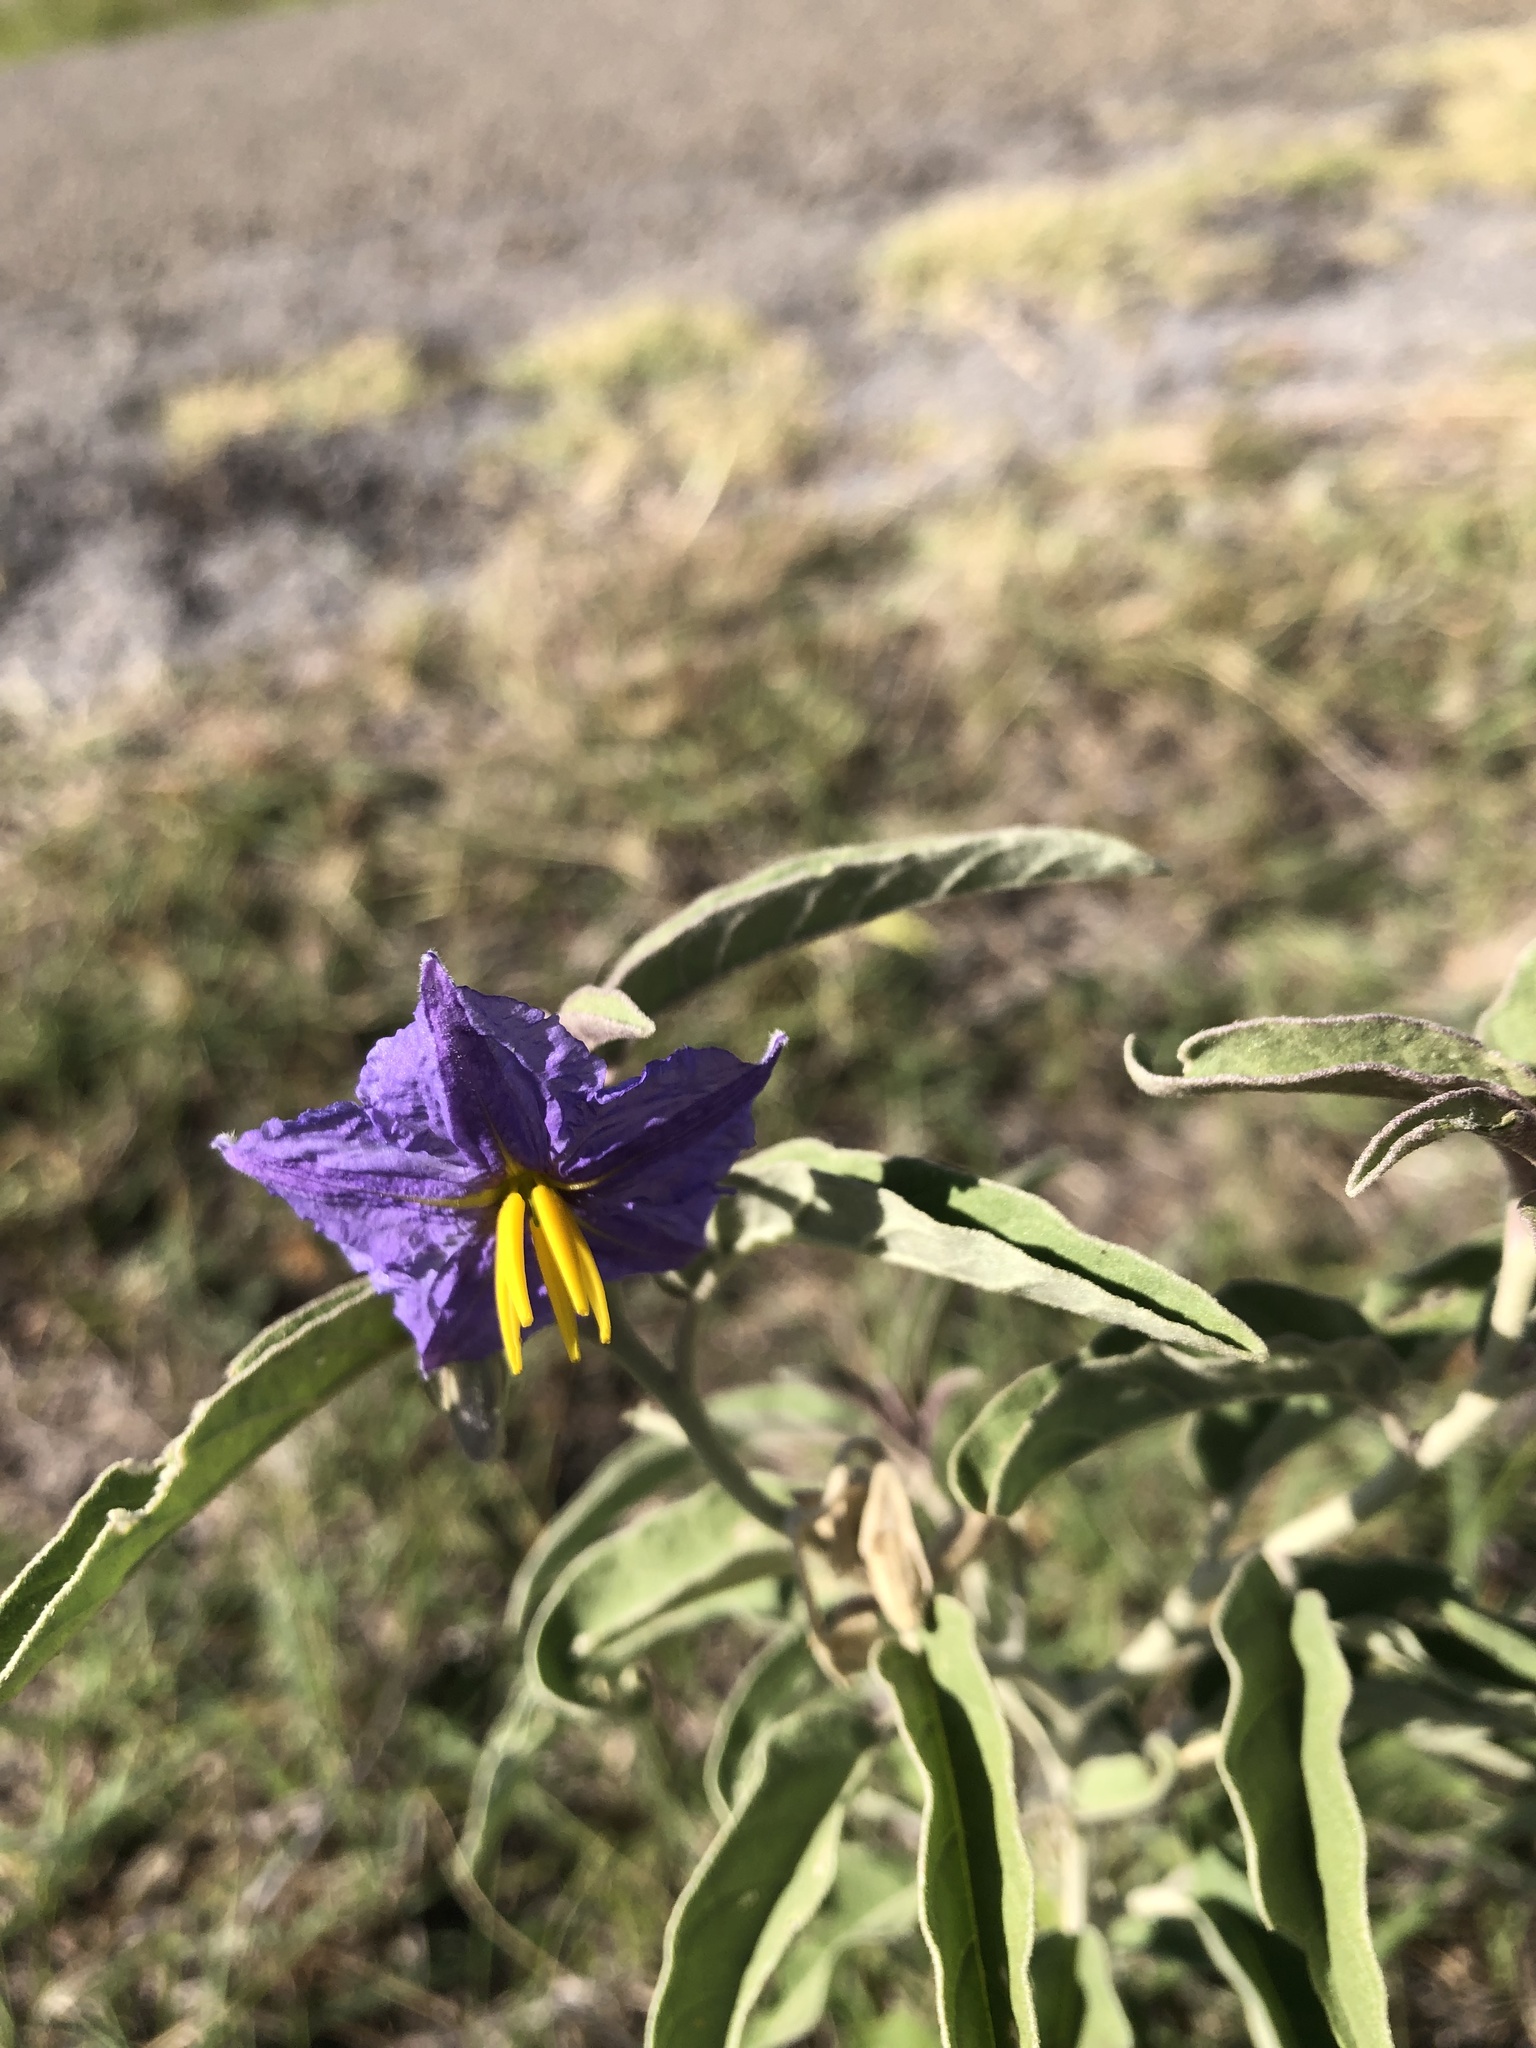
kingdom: Plantae
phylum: Tracheophyta
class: Magnoliopsida
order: Solanales
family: Solanaceae
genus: Solanum
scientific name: Solanum elaeagnifolium
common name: Silverleaf nightshade
